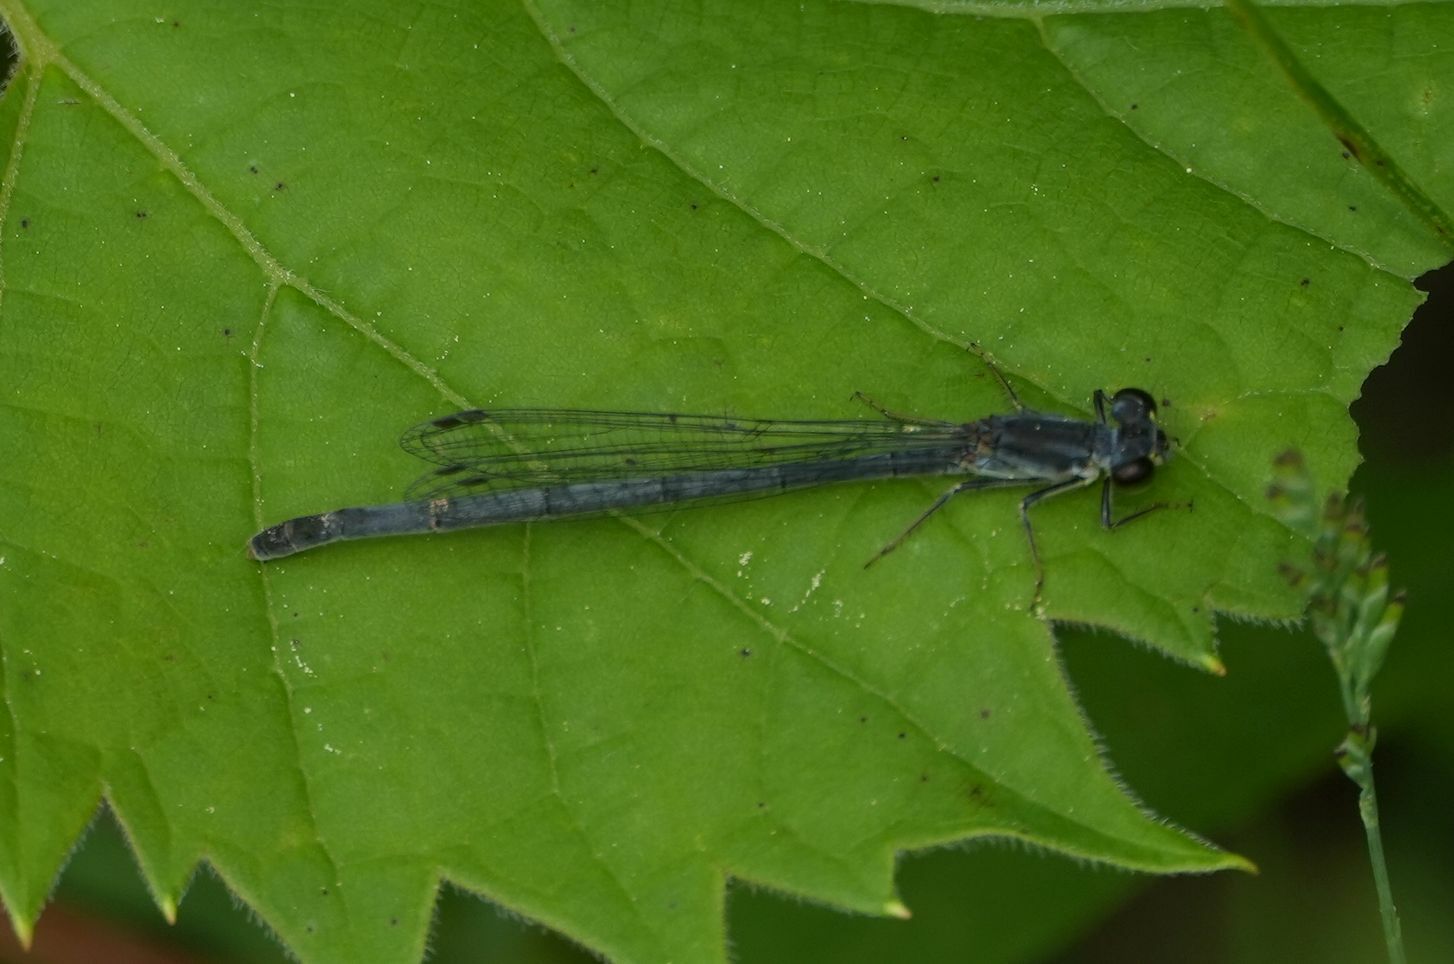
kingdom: Animalia
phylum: Arthropoda
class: Insecta
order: Odonata
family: Coenagrionidae
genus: Ischnura
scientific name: Ischnura verticalis
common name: Eastern forktail
